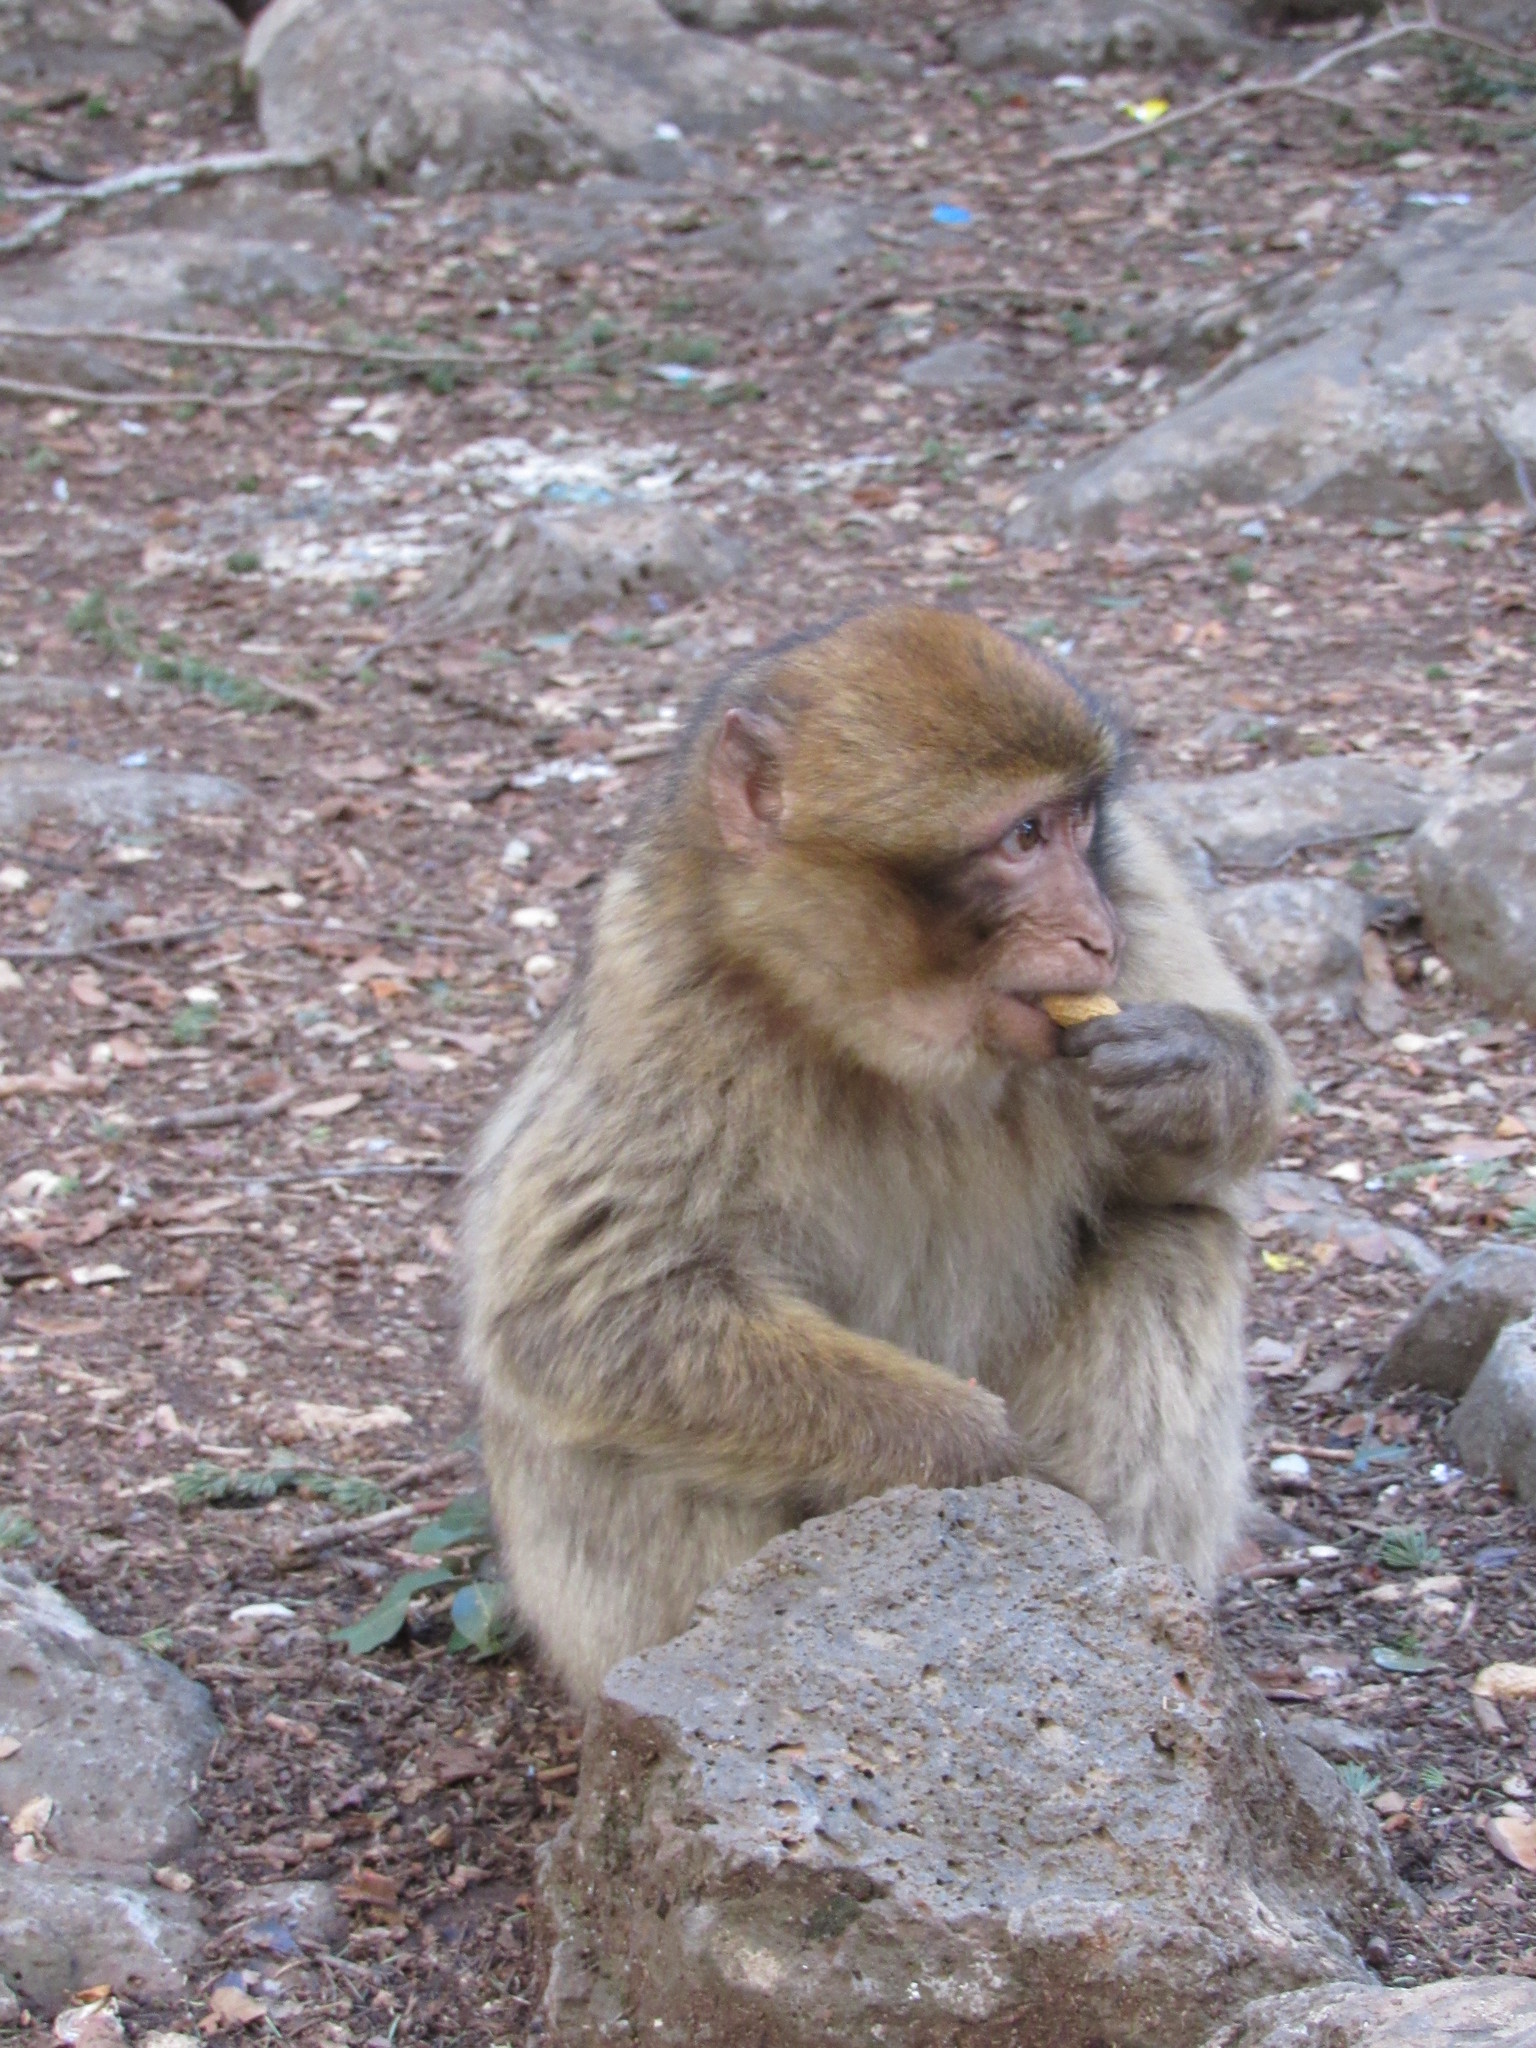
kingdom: Animalia
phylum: Chordata
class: Mammalia
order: Primates
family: Cercopithecidae
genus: Macaca
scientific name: Macaca sylvanus
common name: Barbary macaque
